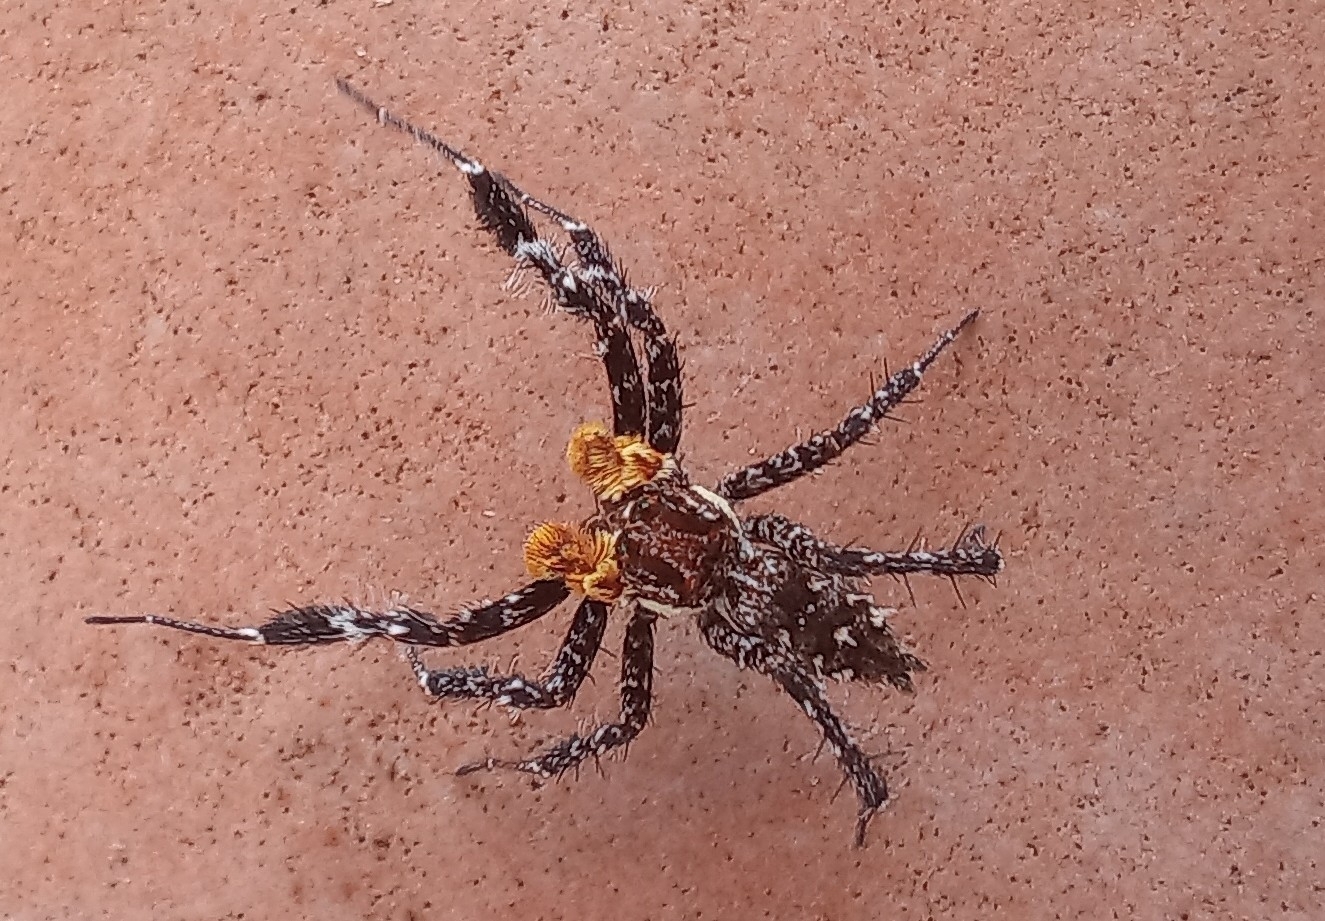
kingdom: Animalia
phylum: Arthropoda
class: Arachnida
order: Araneae
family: Salticidae
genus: Portia
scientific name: Portia schultzi
